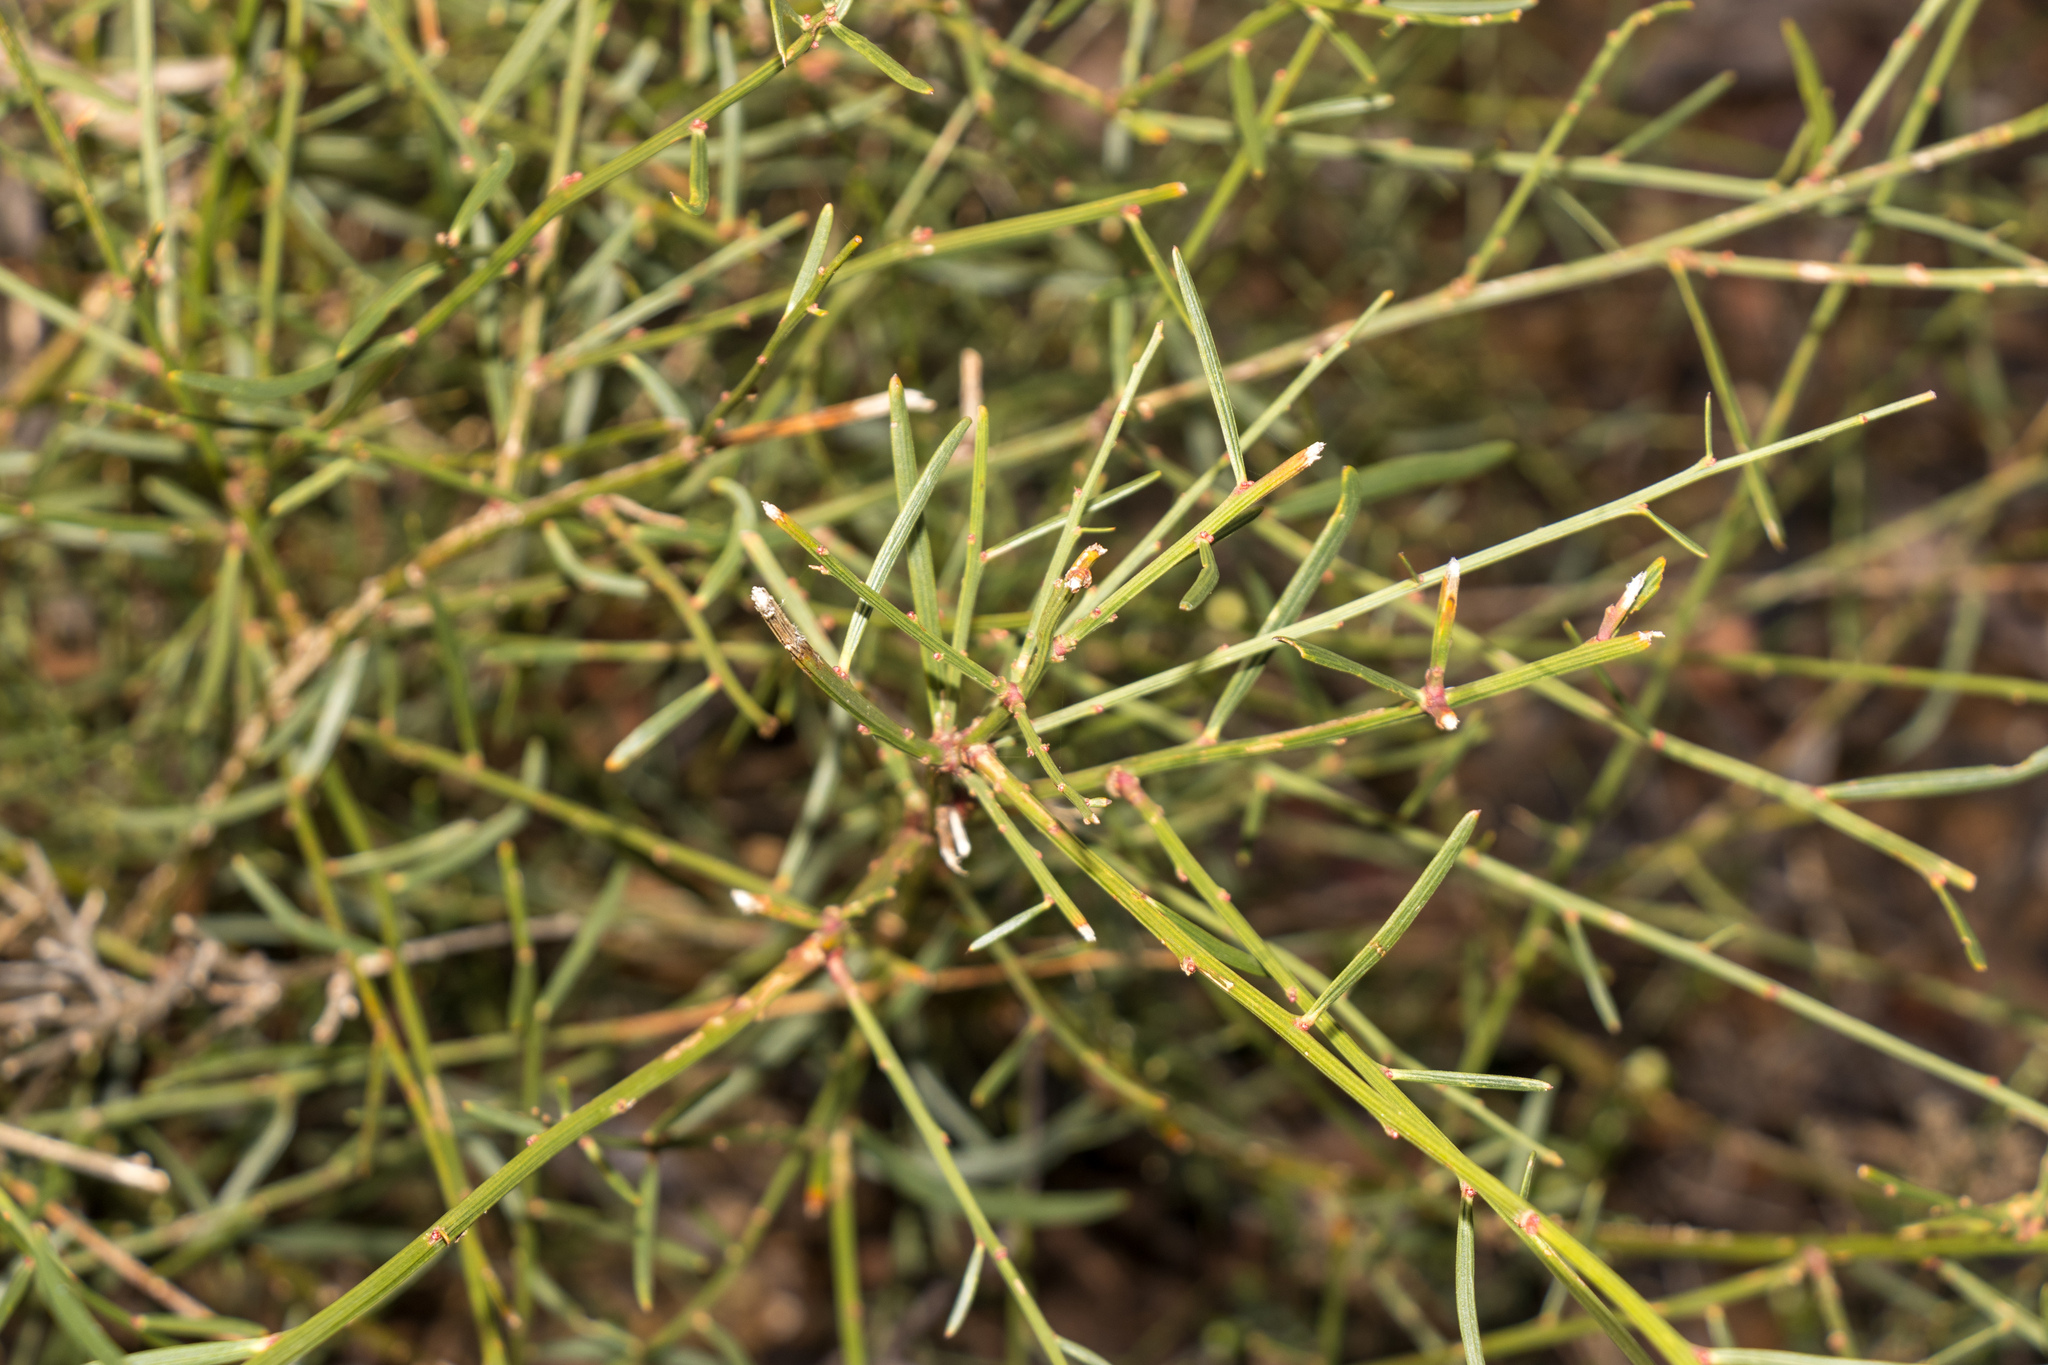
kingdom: Plantae
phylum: Tracheophyta
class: Magnoliopsida
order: Fabales
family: Fabaceae
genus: Daviesia
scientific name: Daviesia leptophylla
